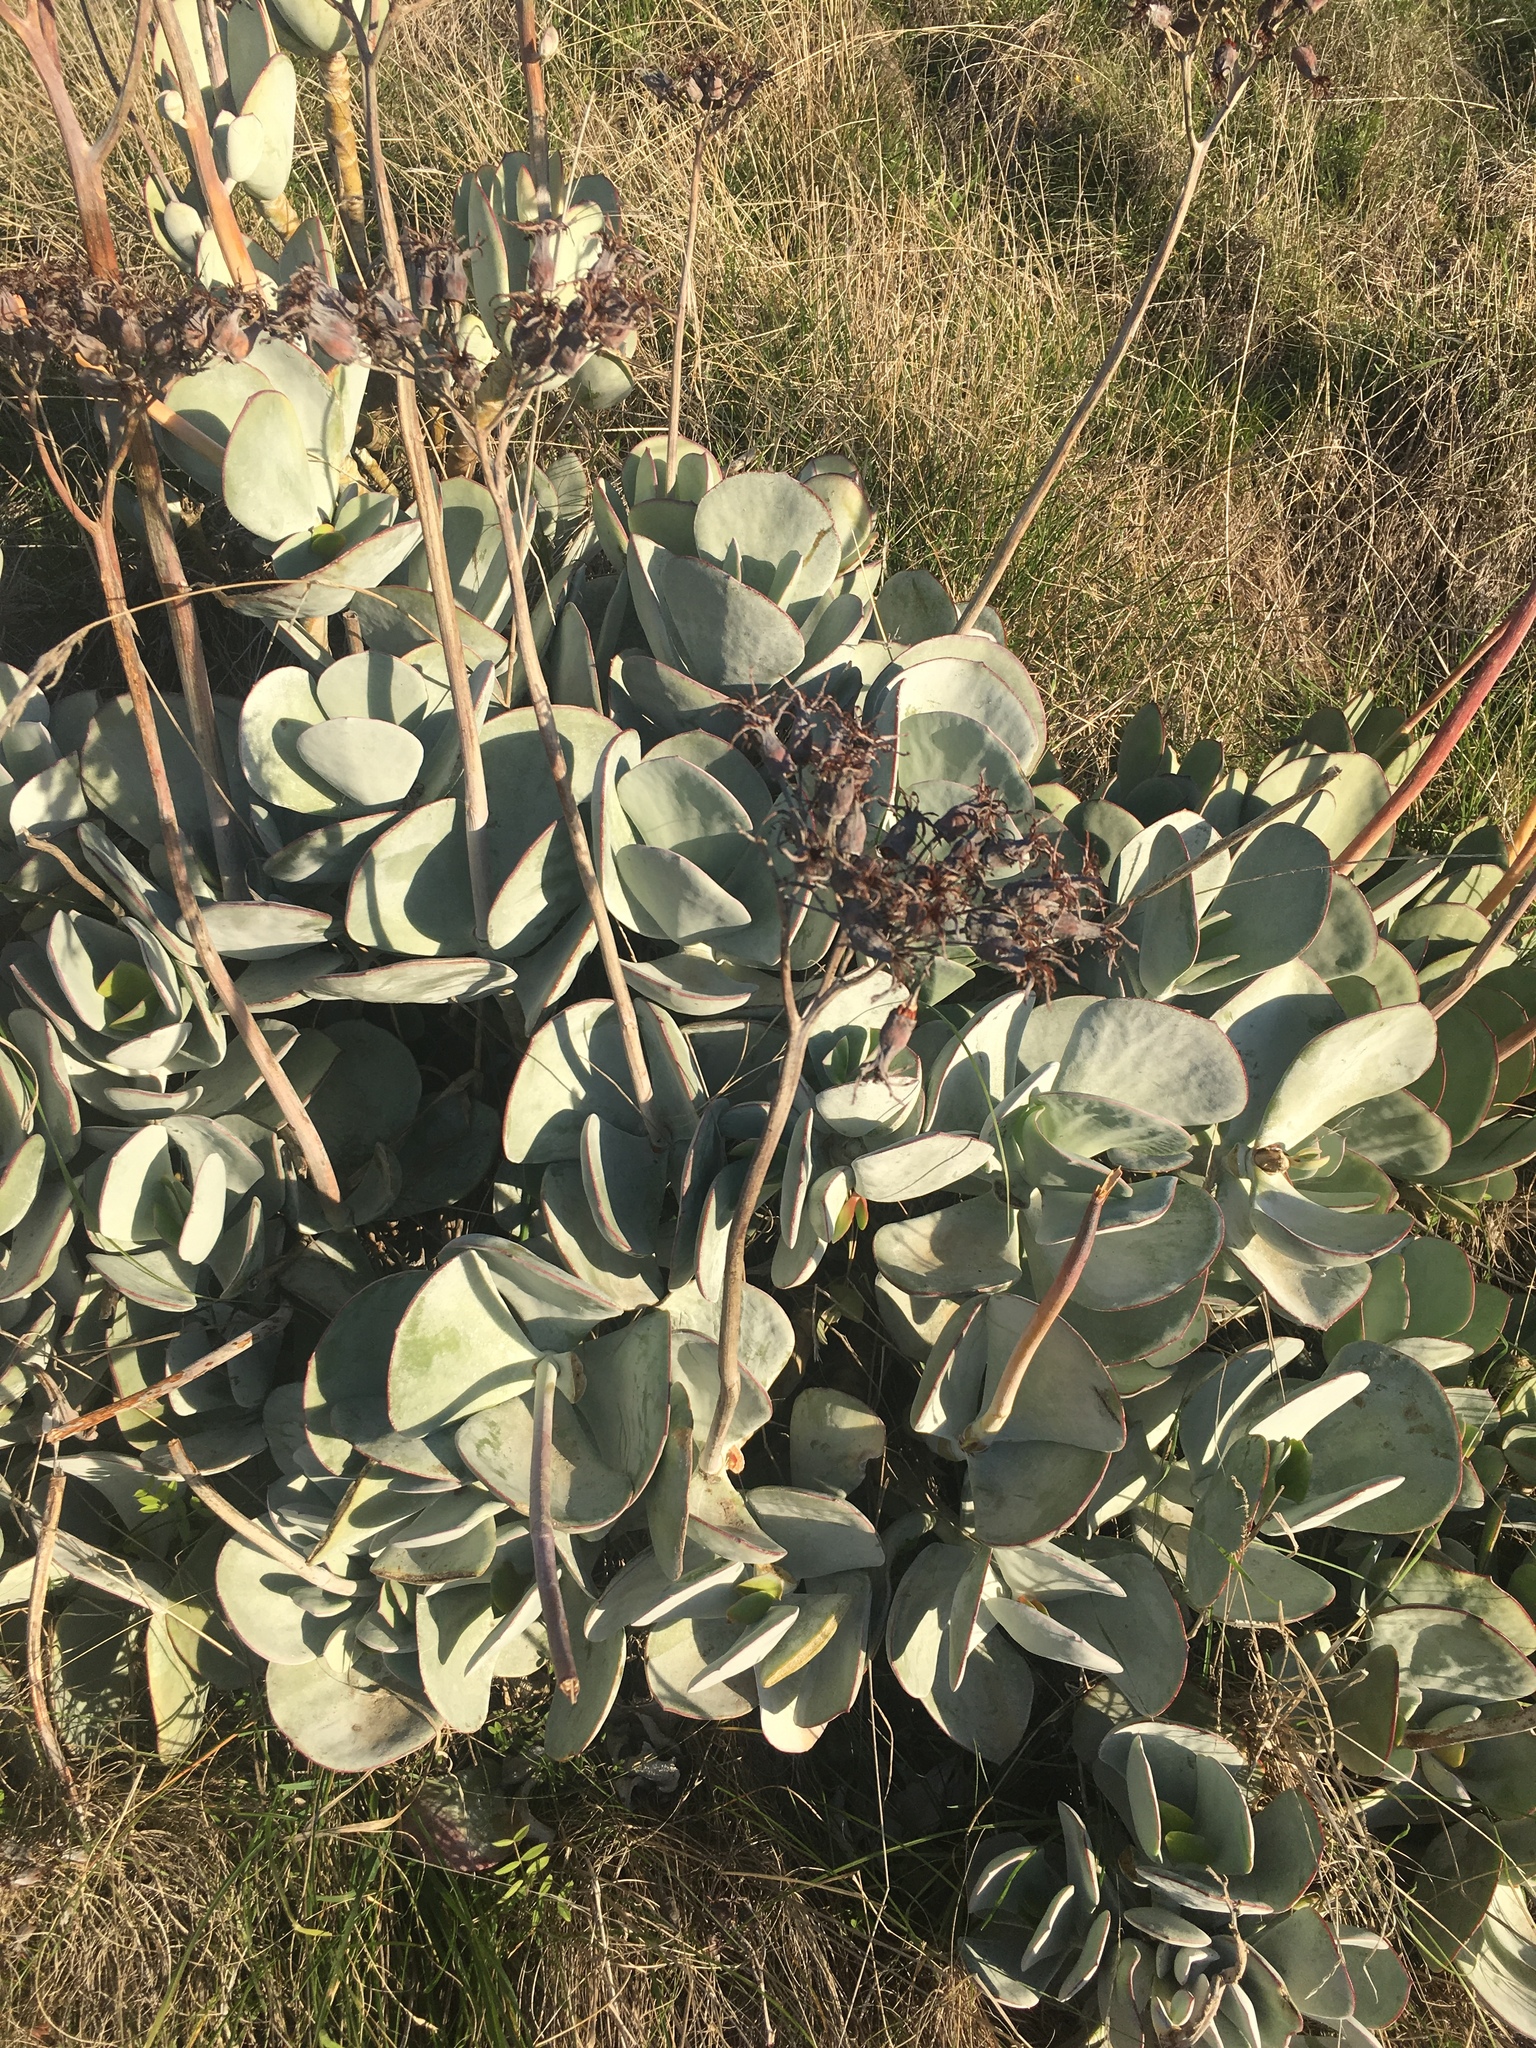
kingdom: Plantae
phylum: Tracheophyta
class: Magnoliopsida
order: Saxifragales
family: Crassulaceae
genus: Cotyledon
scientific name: Cotyledon orbiculata
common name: Pig's ear
